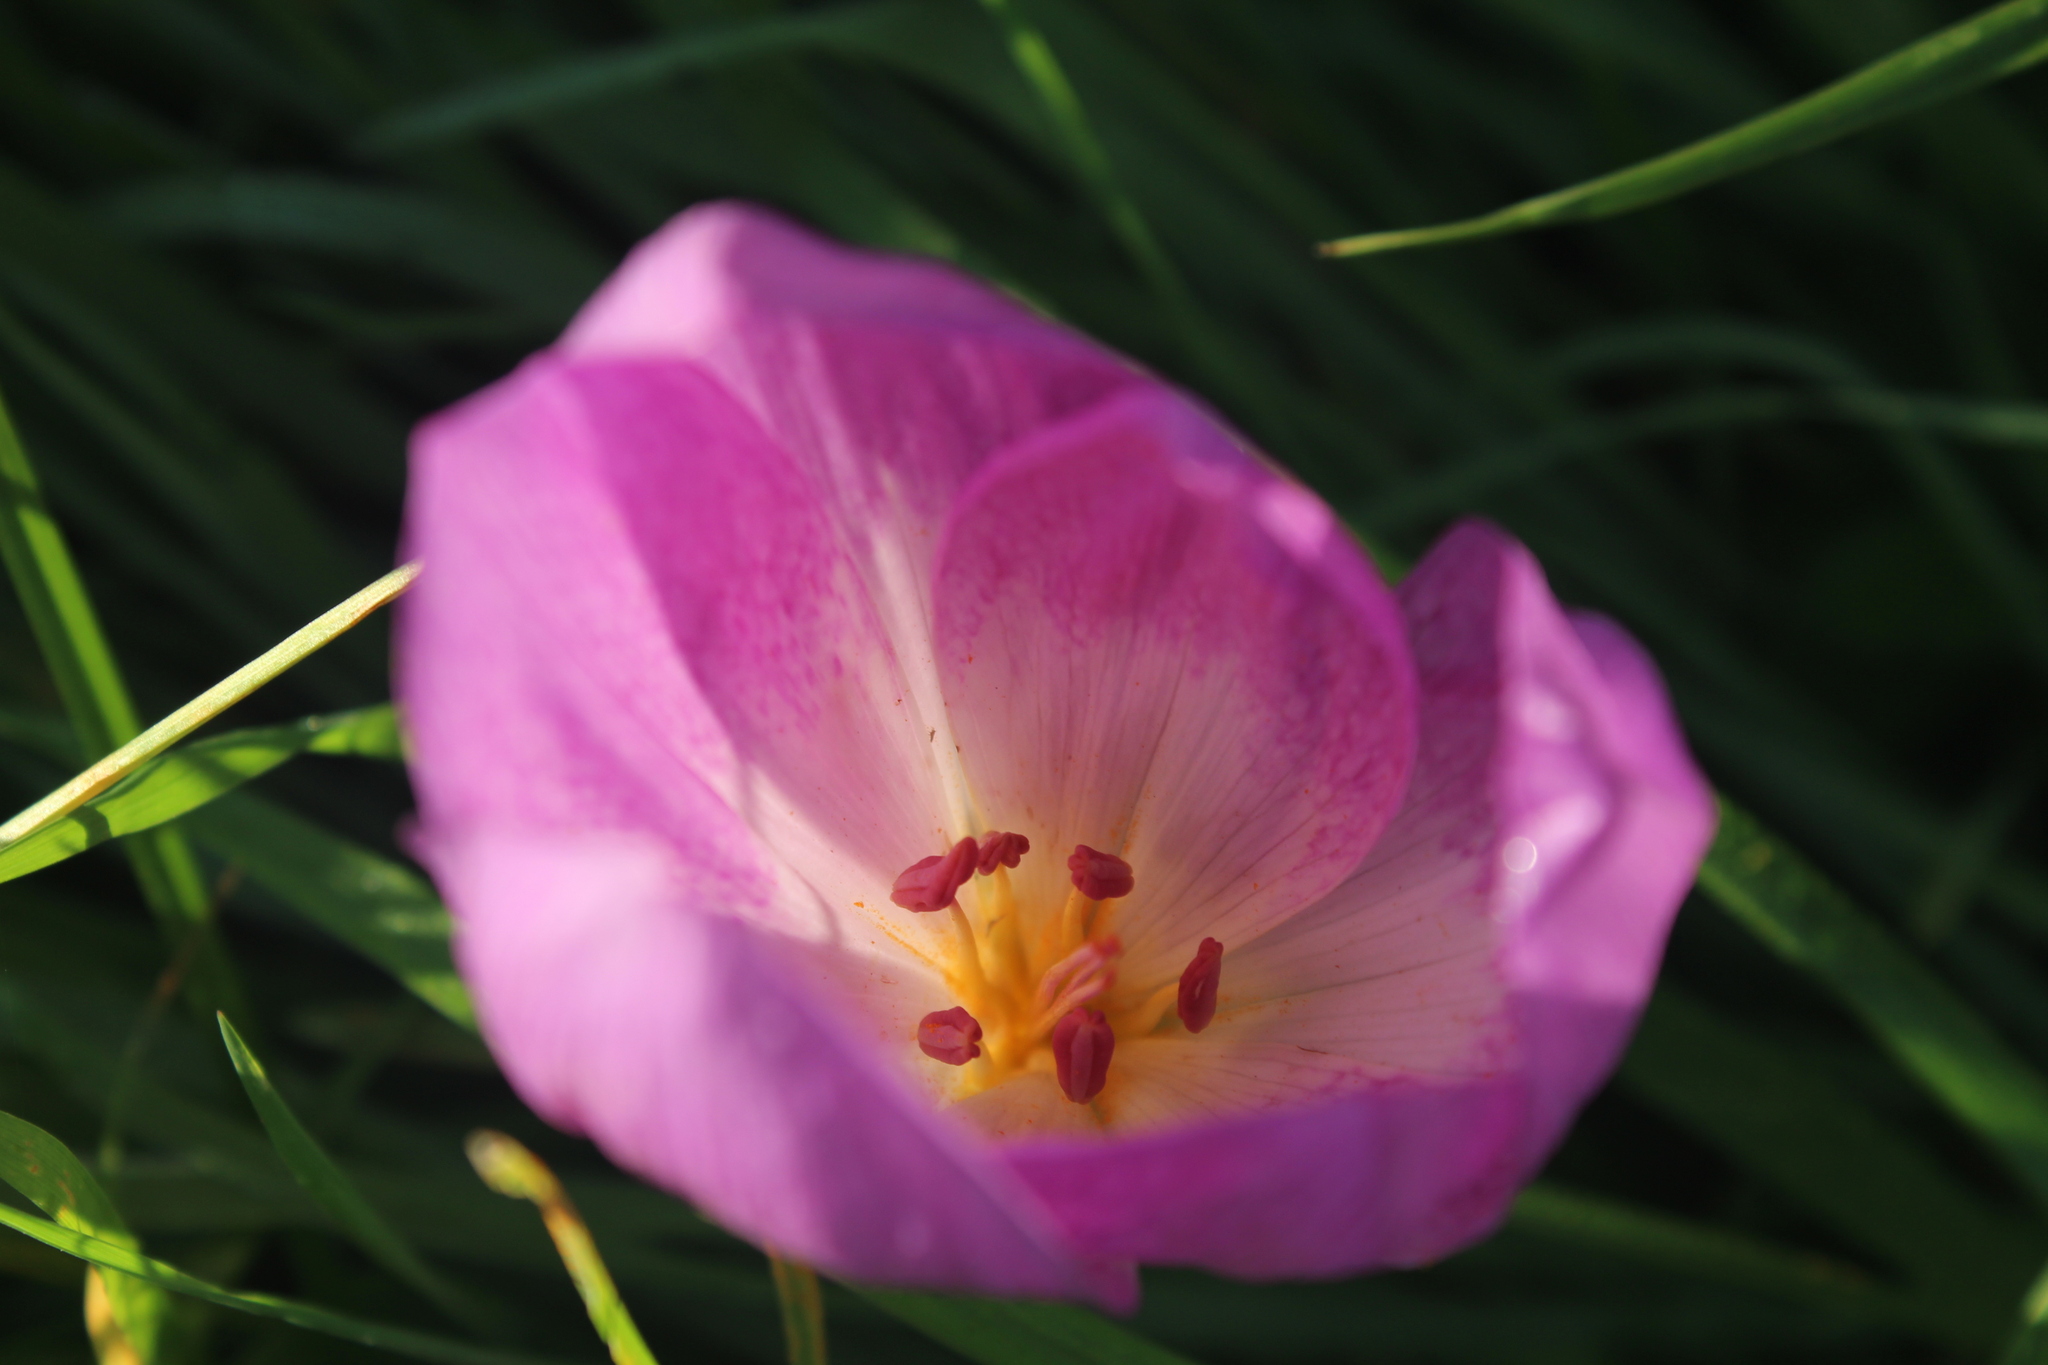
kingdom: Plantae
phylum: Tracheophyta
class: Liliopsida
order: Liliales
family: Colchicaceae
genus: Colchicum
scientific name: Colchicum autumnale
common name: Autumn crocus
